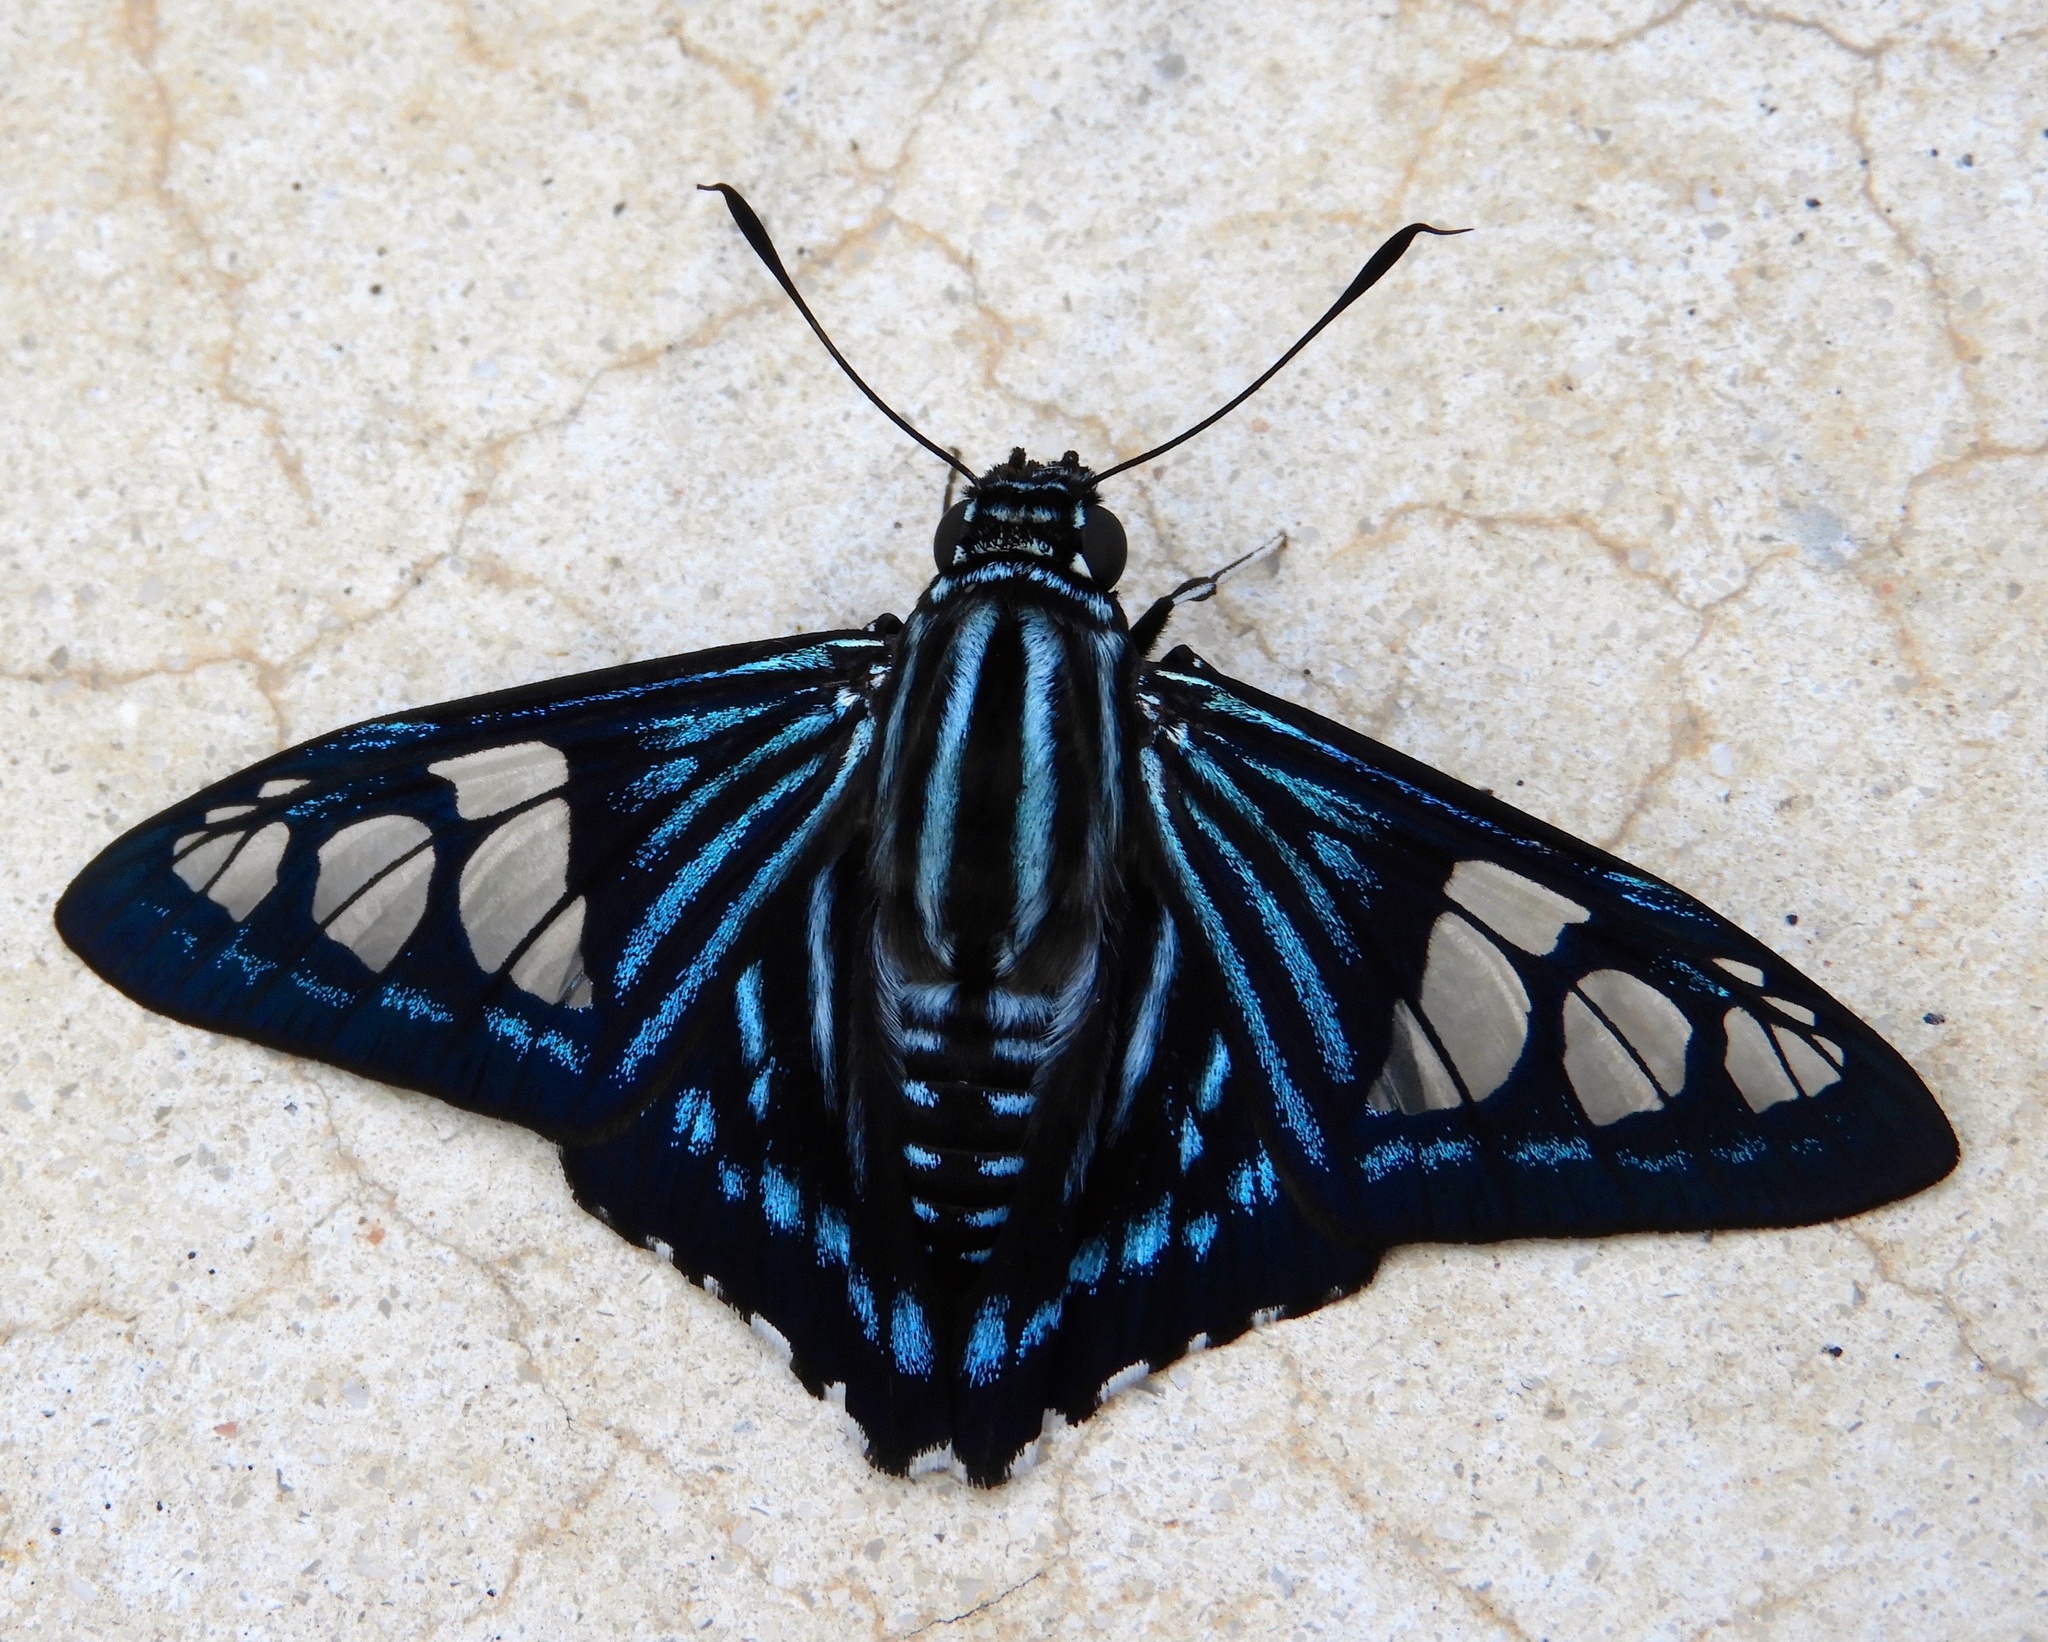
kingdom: Animalia
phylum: Arthropoda
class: Insecta
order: Lepidoptera
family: Hesperiidae
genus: Phocides
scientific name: Phocides pigmalion
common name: Mangrove skipper
